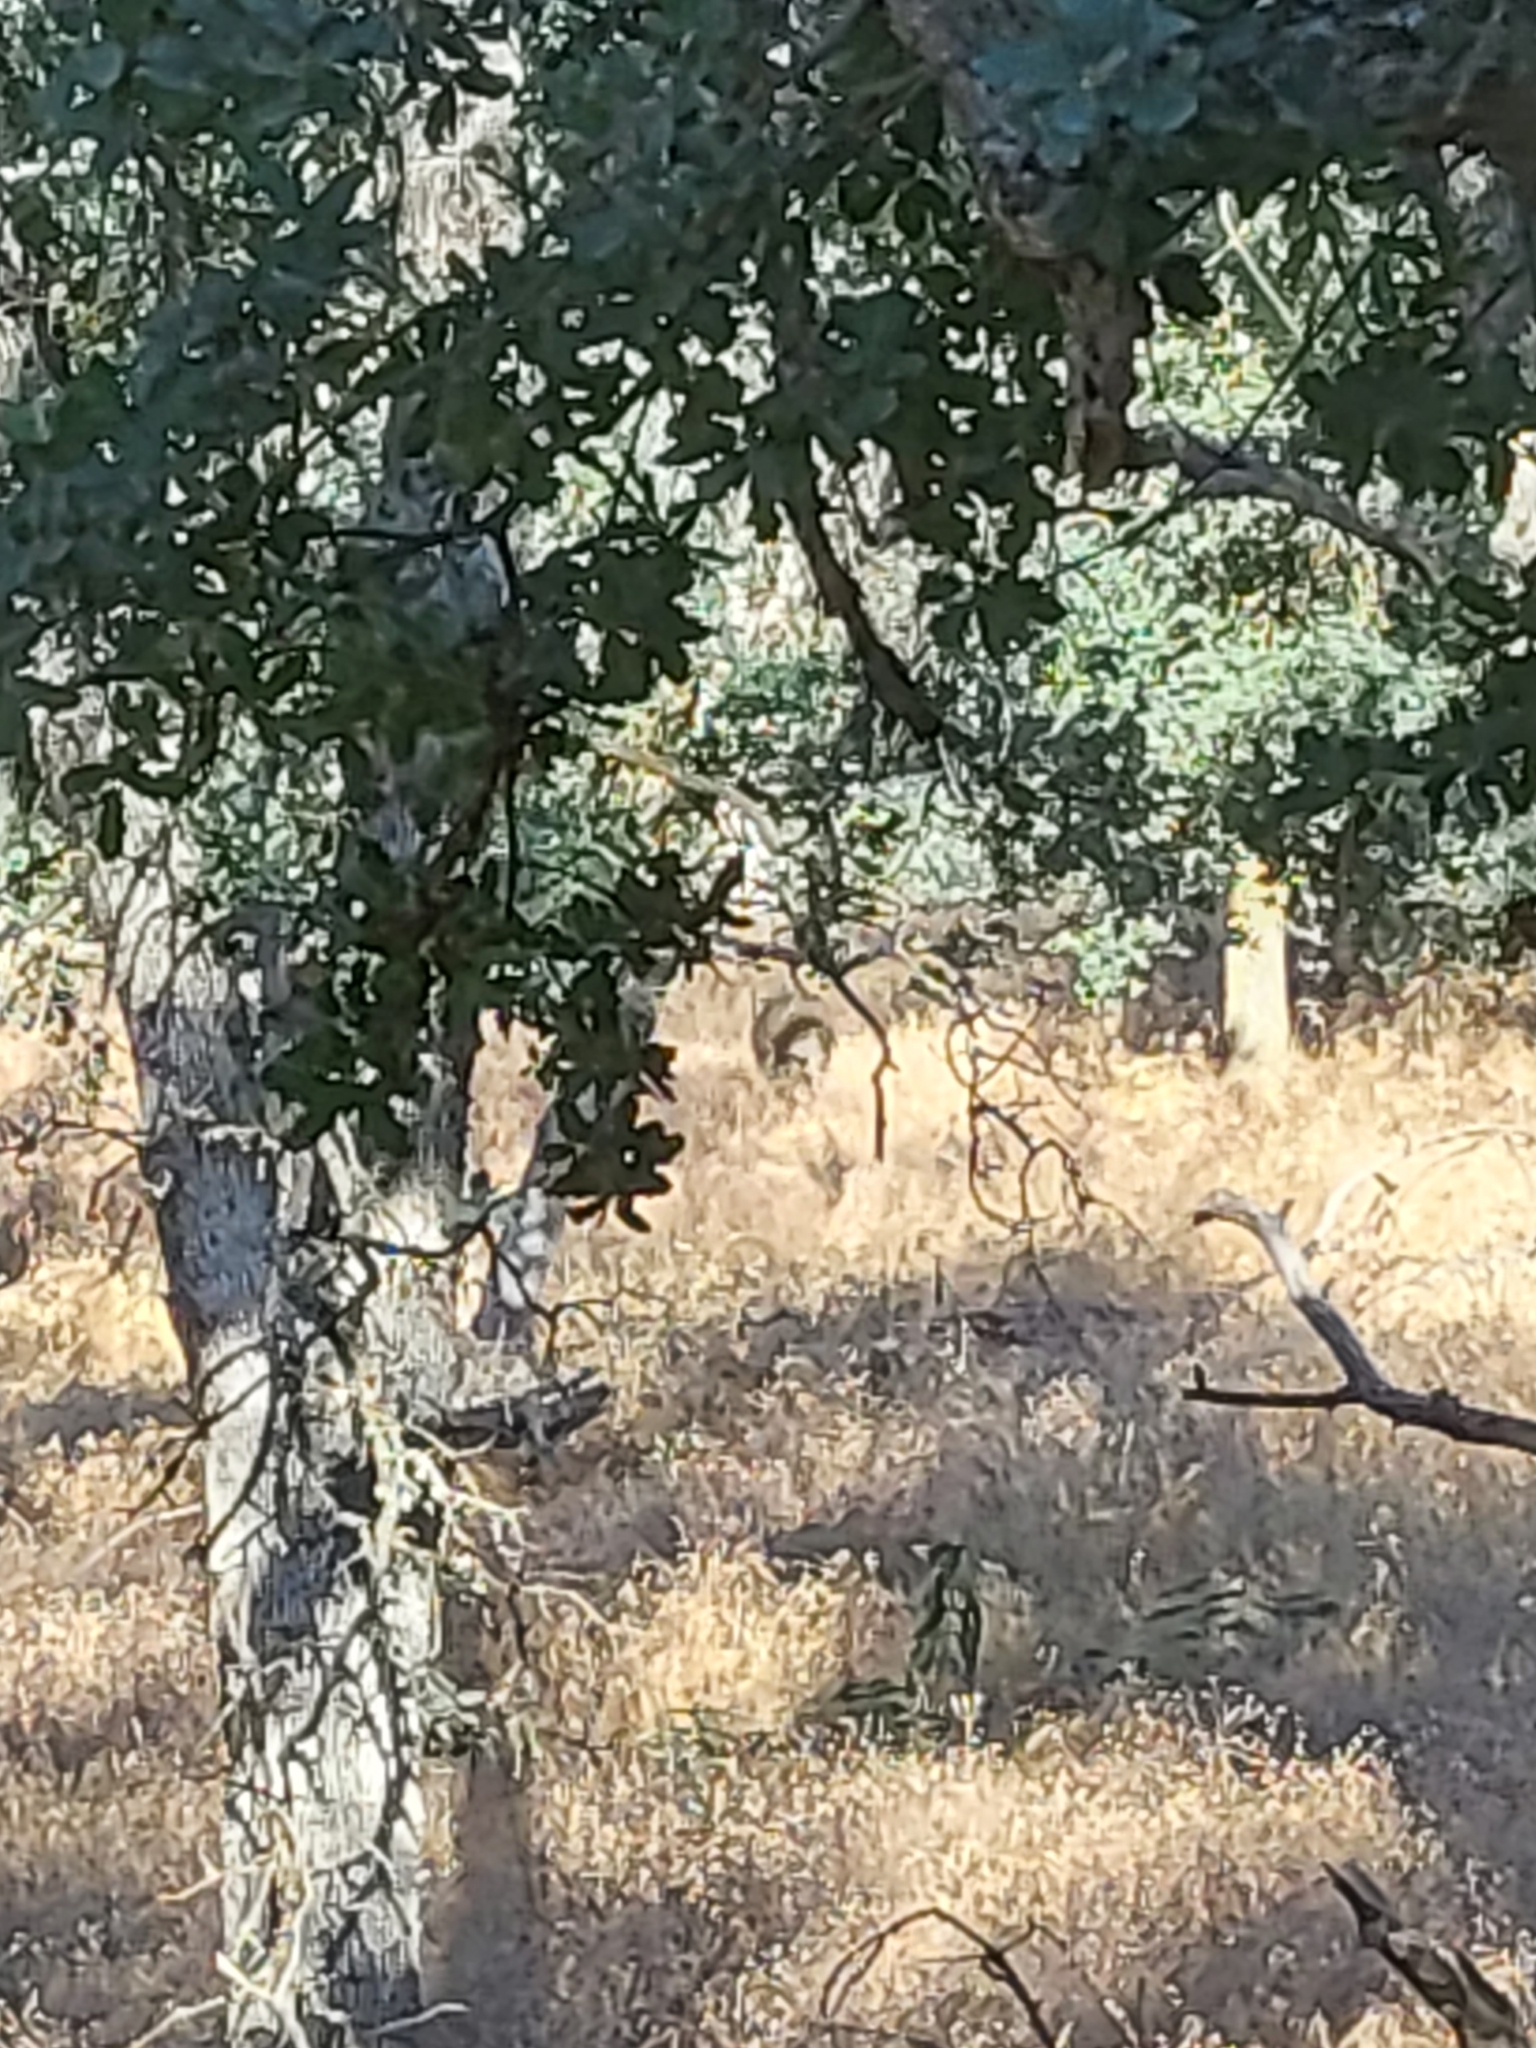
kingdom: Animalia
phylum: Chordata
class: Mammalia
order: Artiodactyla
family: Suidae
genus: Sus
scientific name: Sus scrofa
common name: Wild boar
